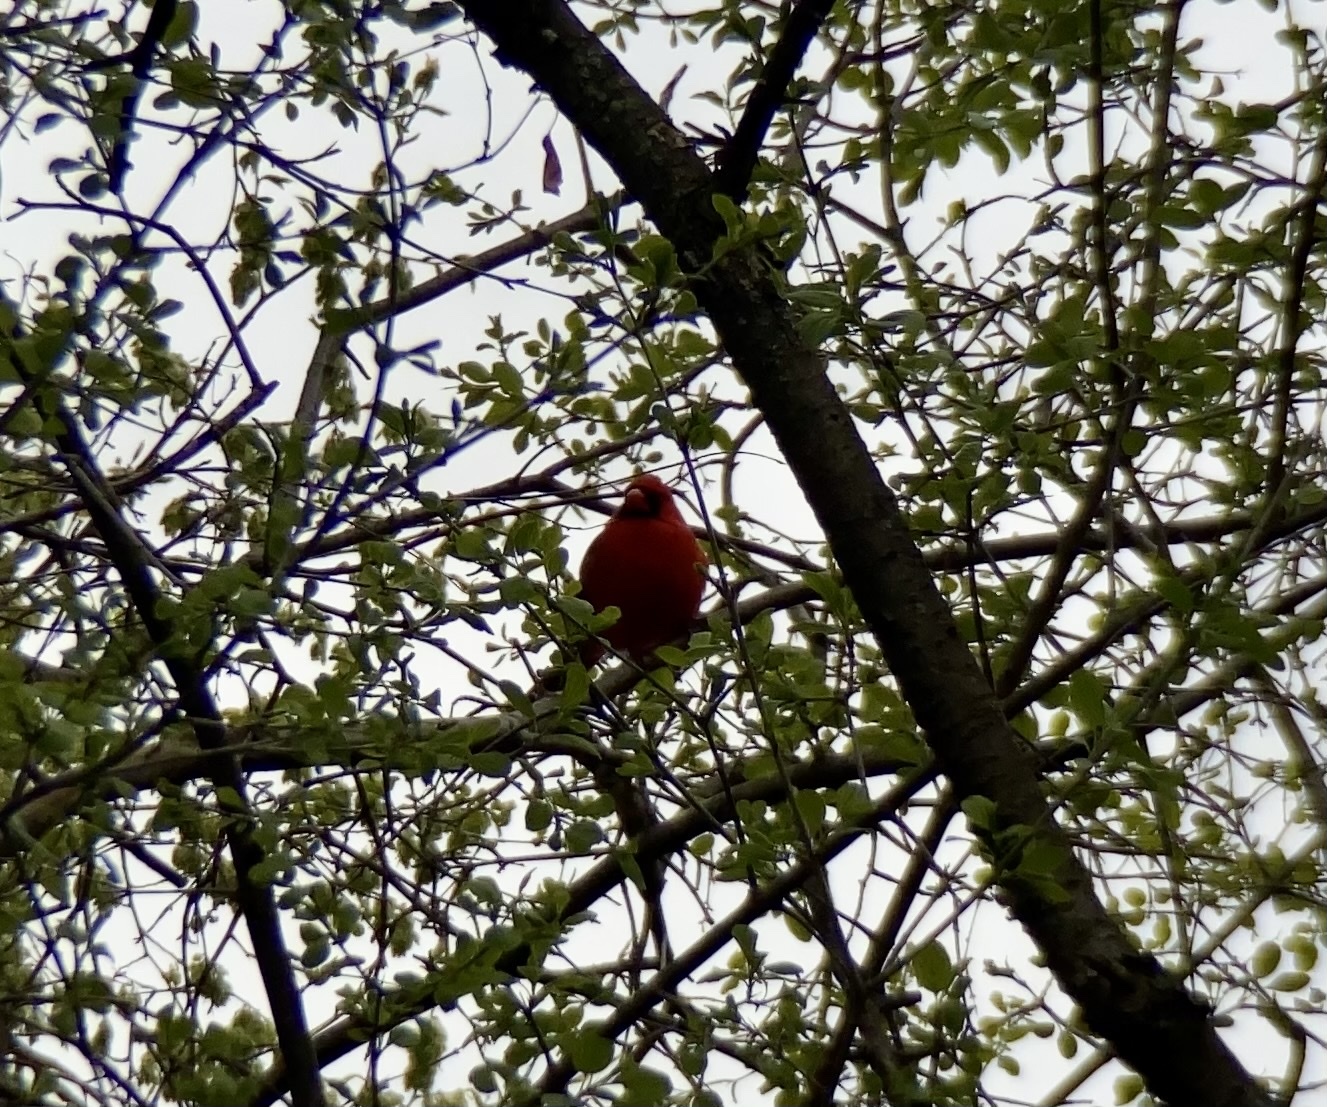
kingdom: Animalia
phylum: Chordata
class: Aves
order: Passeriformes
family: Cardinalidae
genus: Cardinalis
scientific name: Cardinalis cardinalis
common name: Northern cardinal
